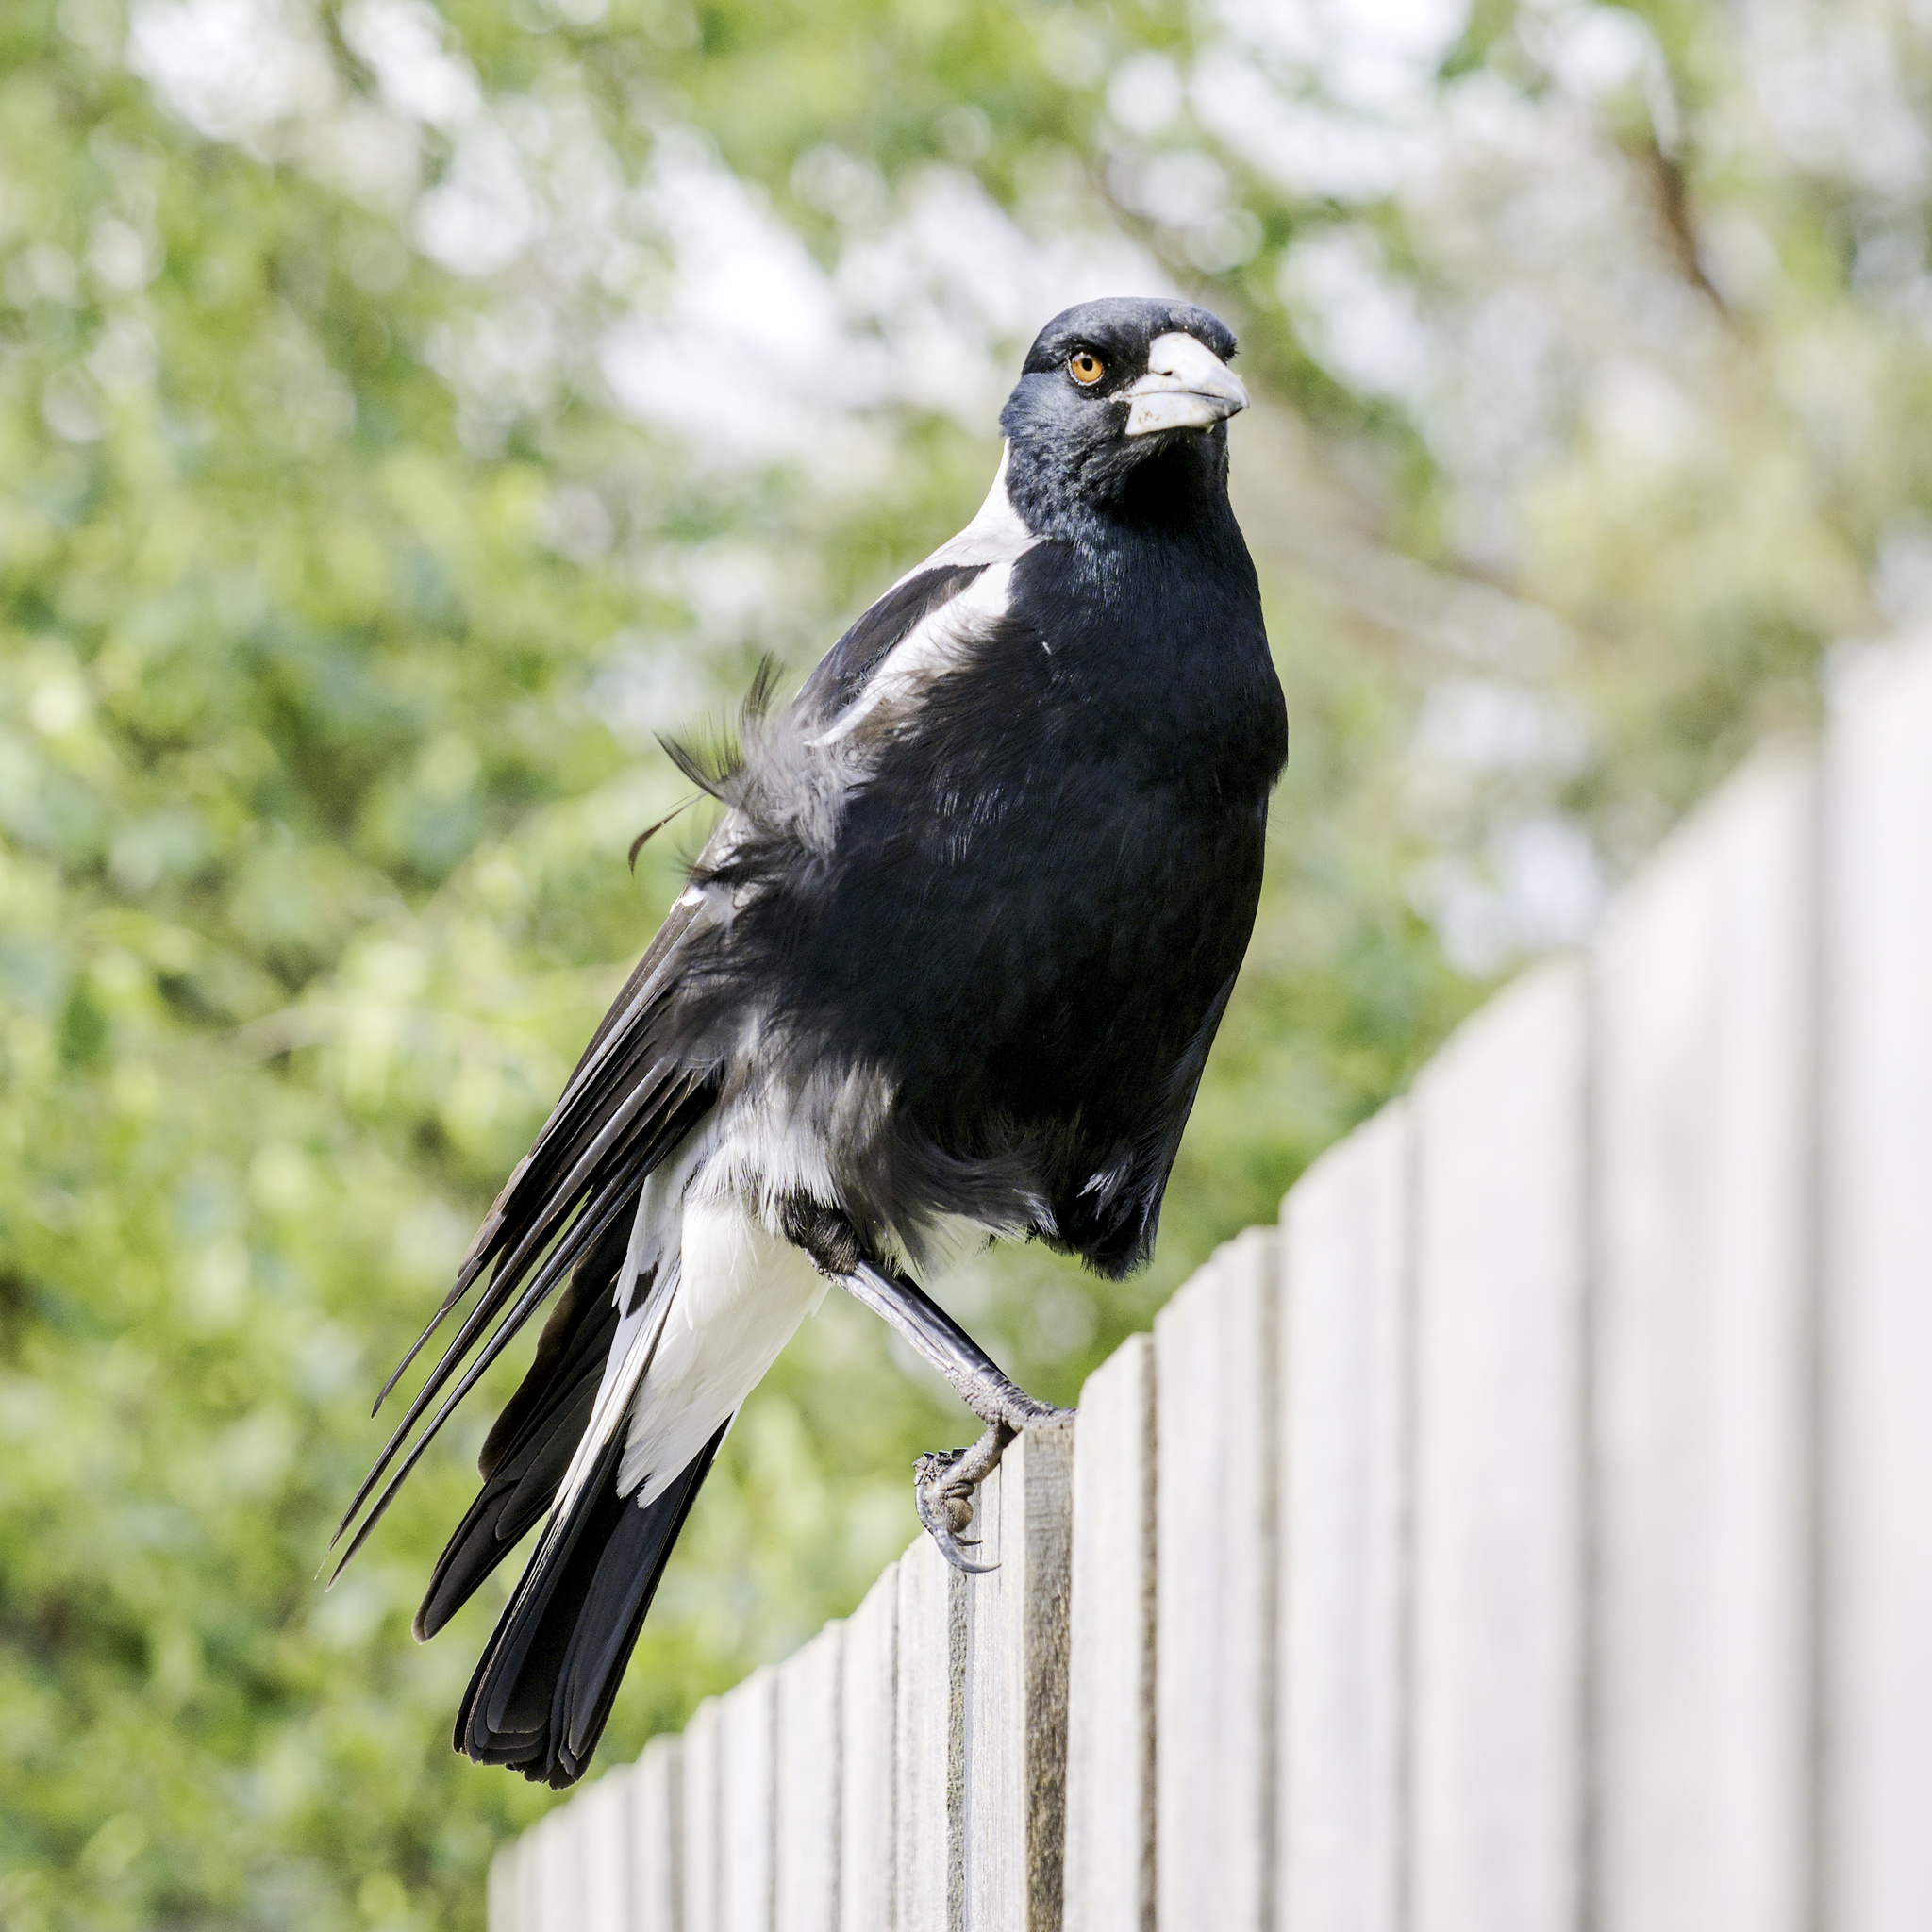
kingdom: Animalia
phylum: Chordata
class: Aves
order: Passeriformes
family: Cracticidae
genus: Gymnorhina
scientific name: Gymnorhina tibicen
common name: Australian magpie
